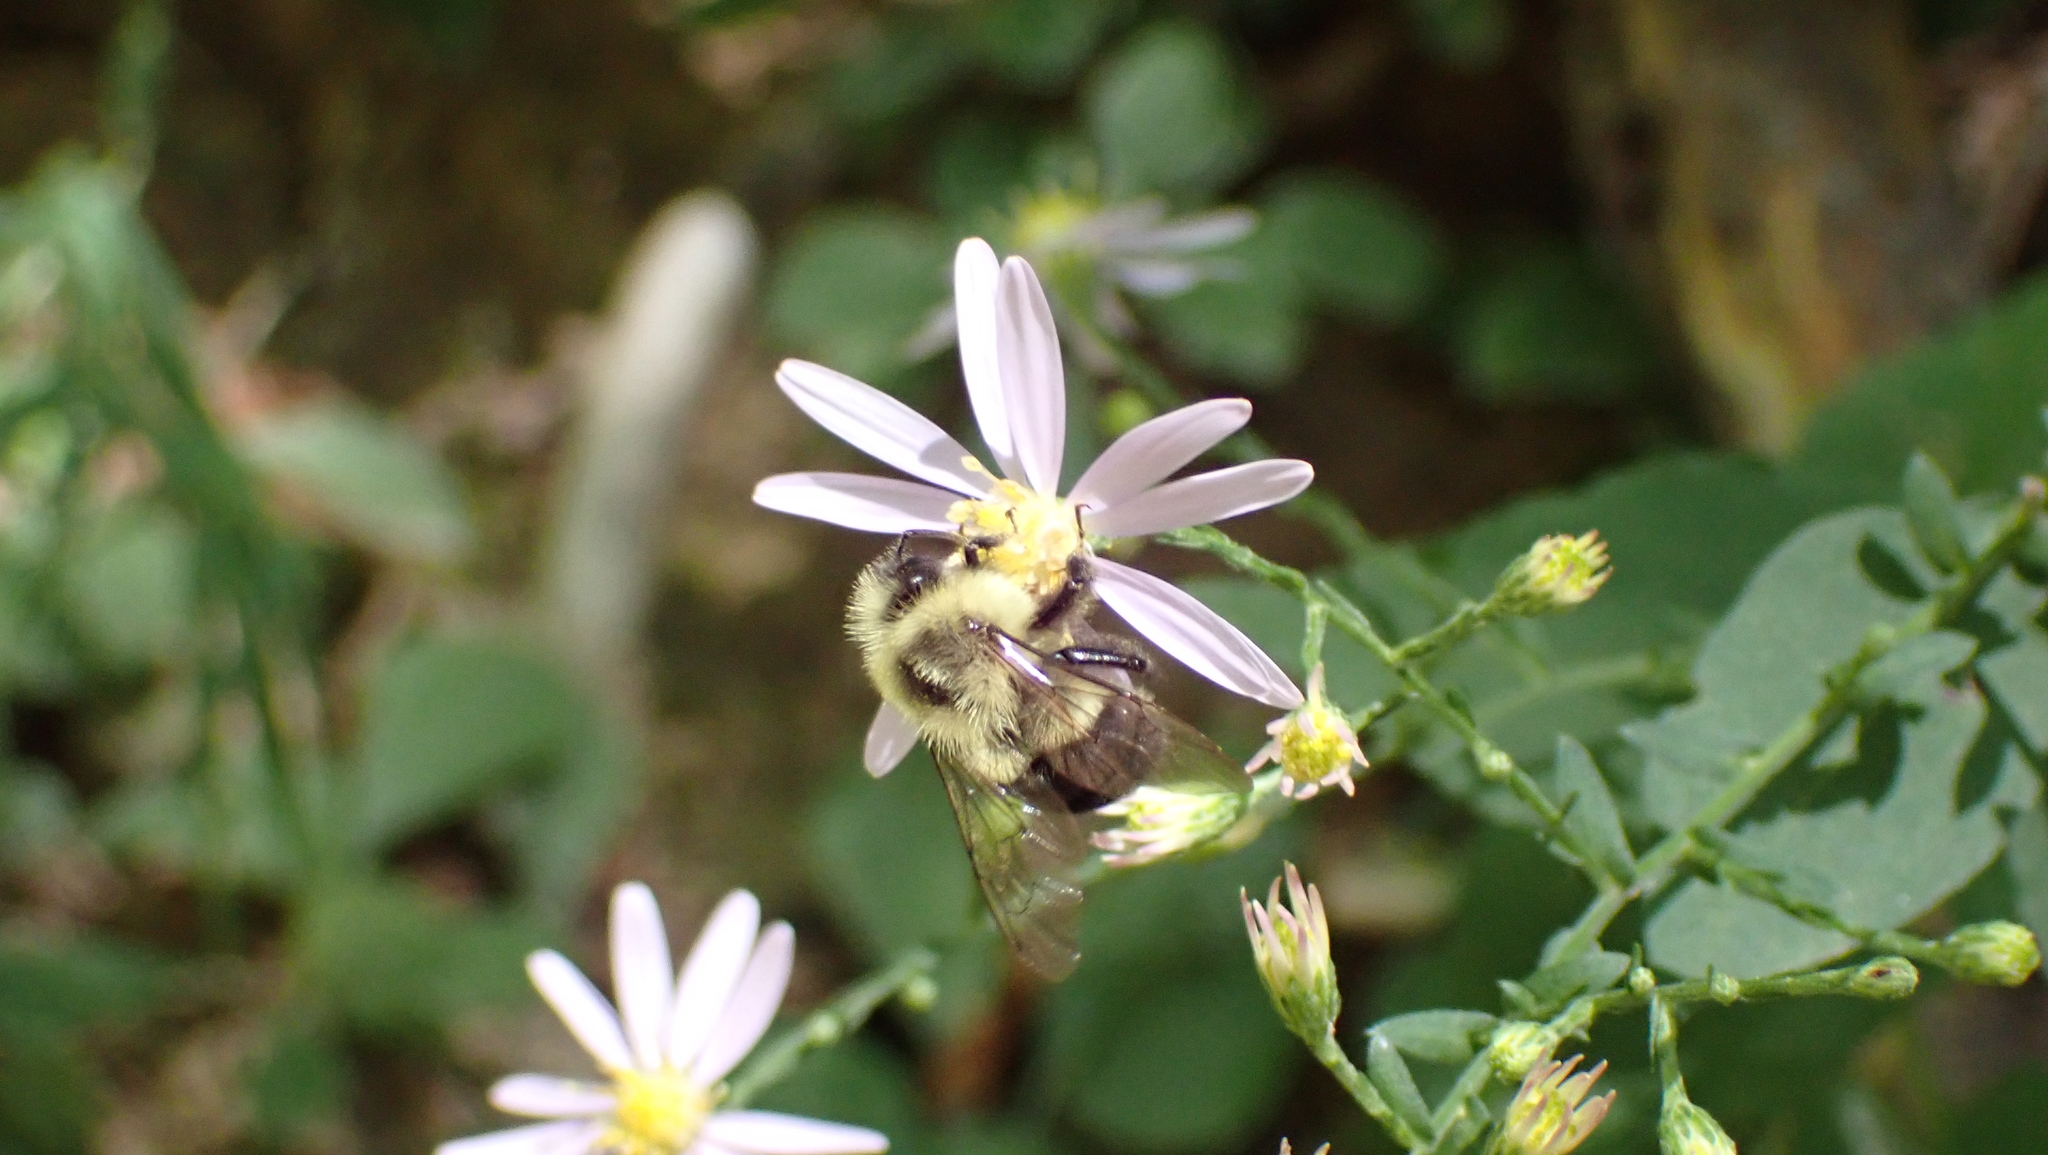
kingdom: Animalia
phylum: Arthropoda
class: Insecta
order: Hymenoptera
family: Apidae
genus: Bombus
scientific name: Bombus impatiens
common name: Common eastern bumble bee
